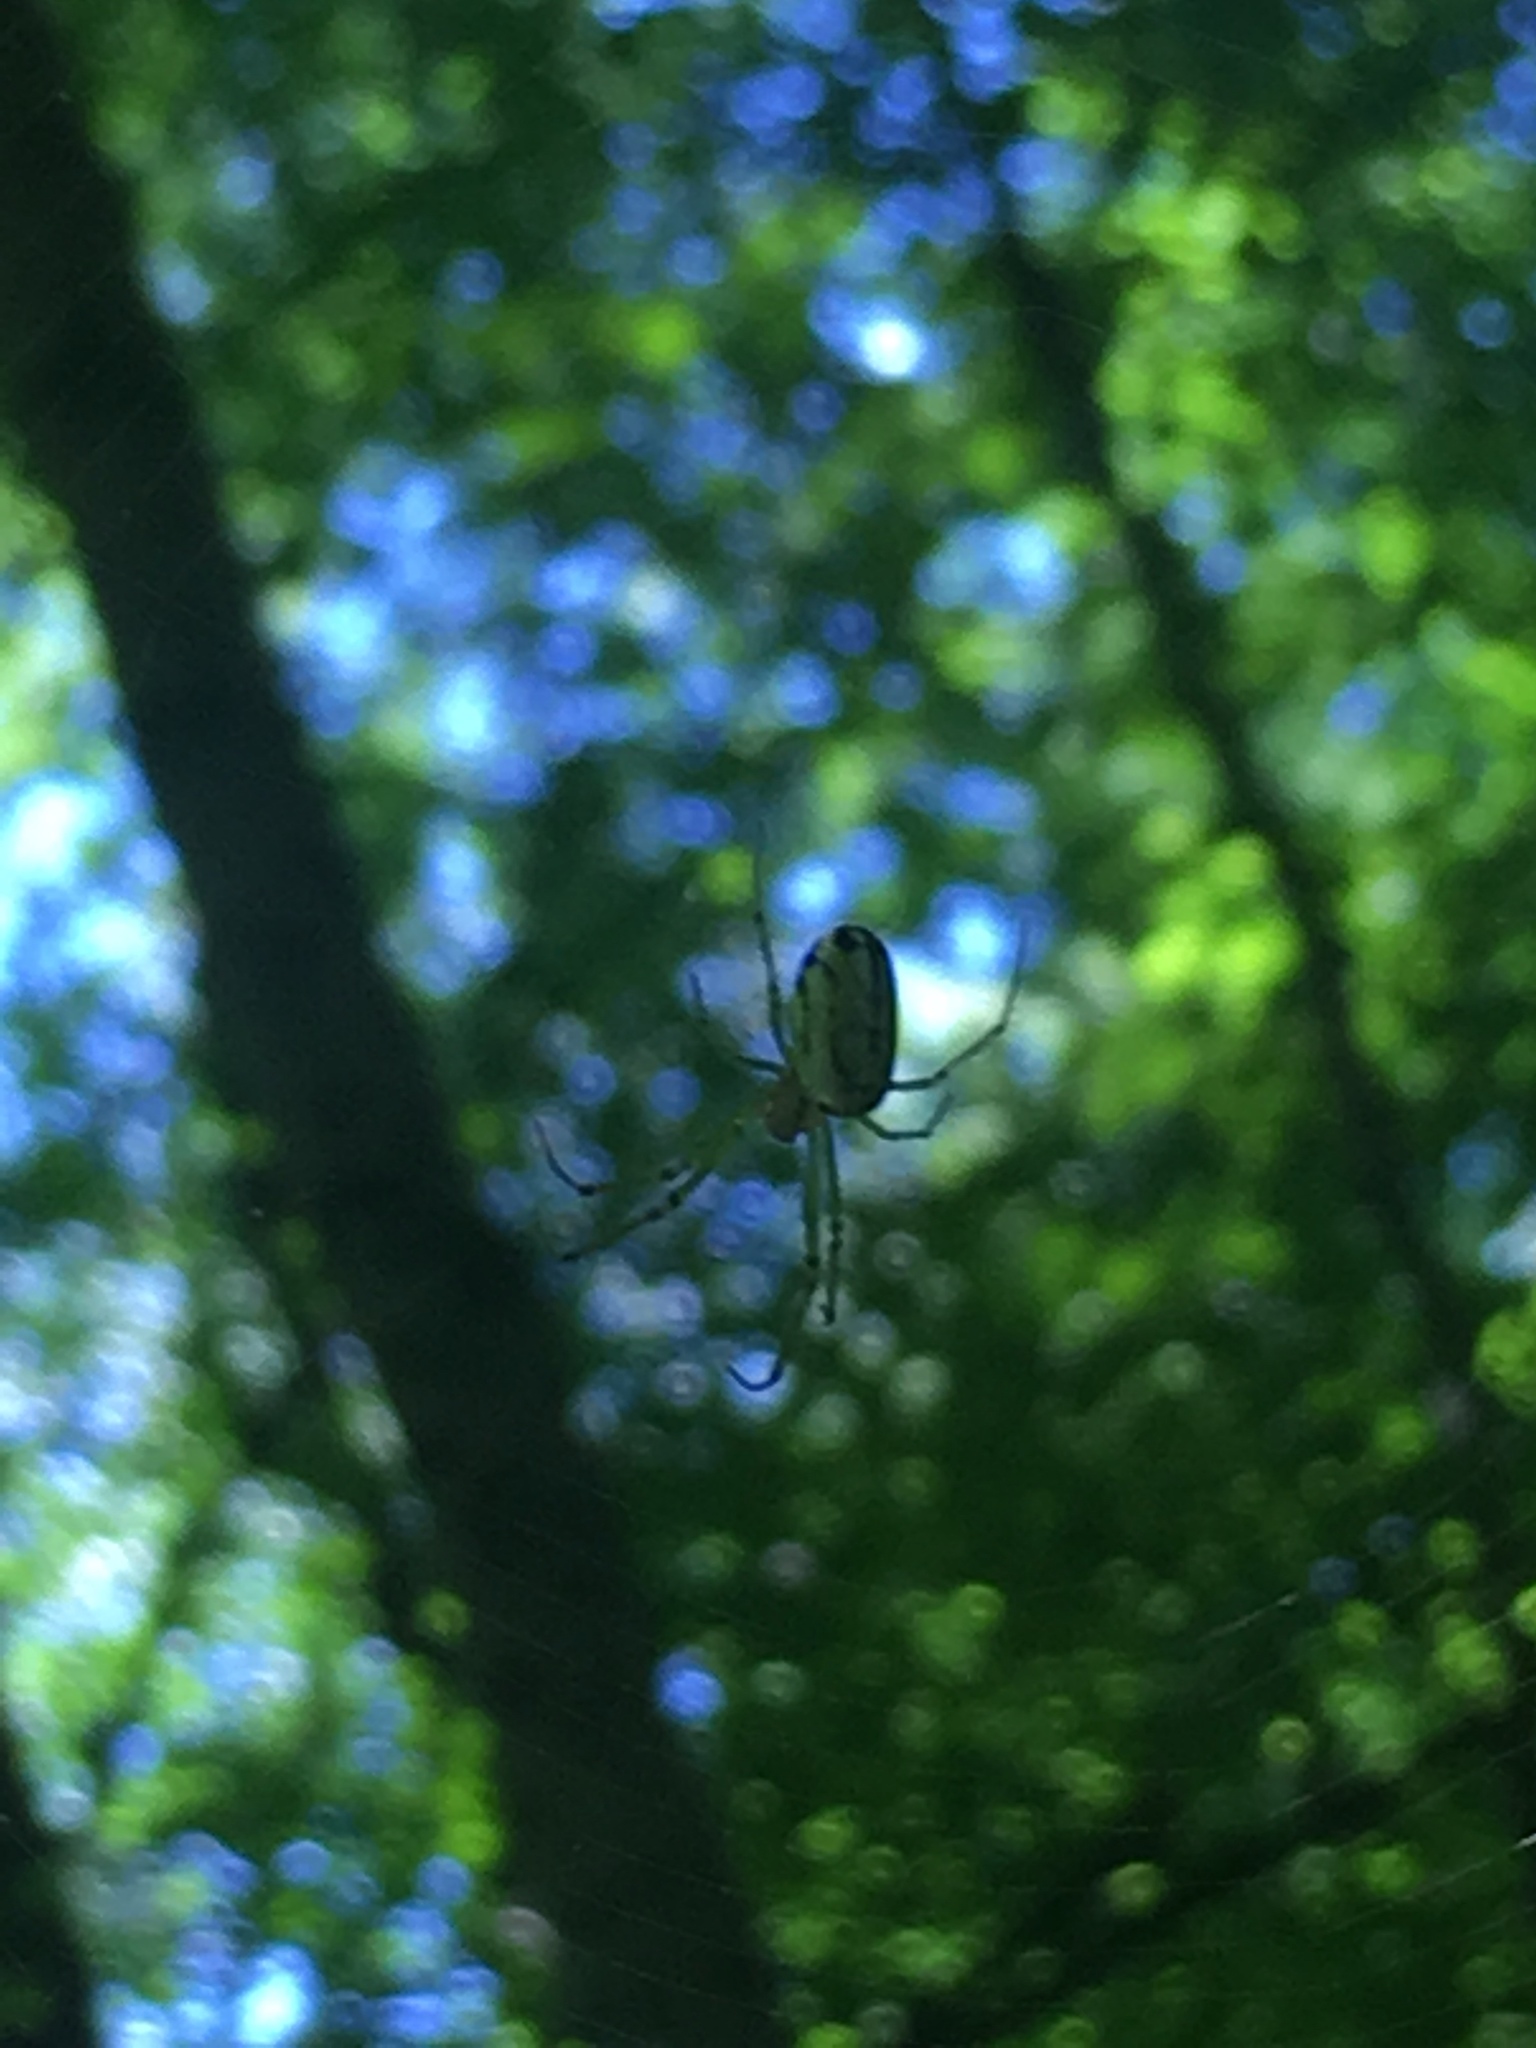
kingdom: Animalia
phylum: Arthropoda
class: Arachnida
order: Araneae
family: Tetragnathidae
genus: Leucauge
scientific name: Leucauge venusta
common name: Longjawed orb weavers
